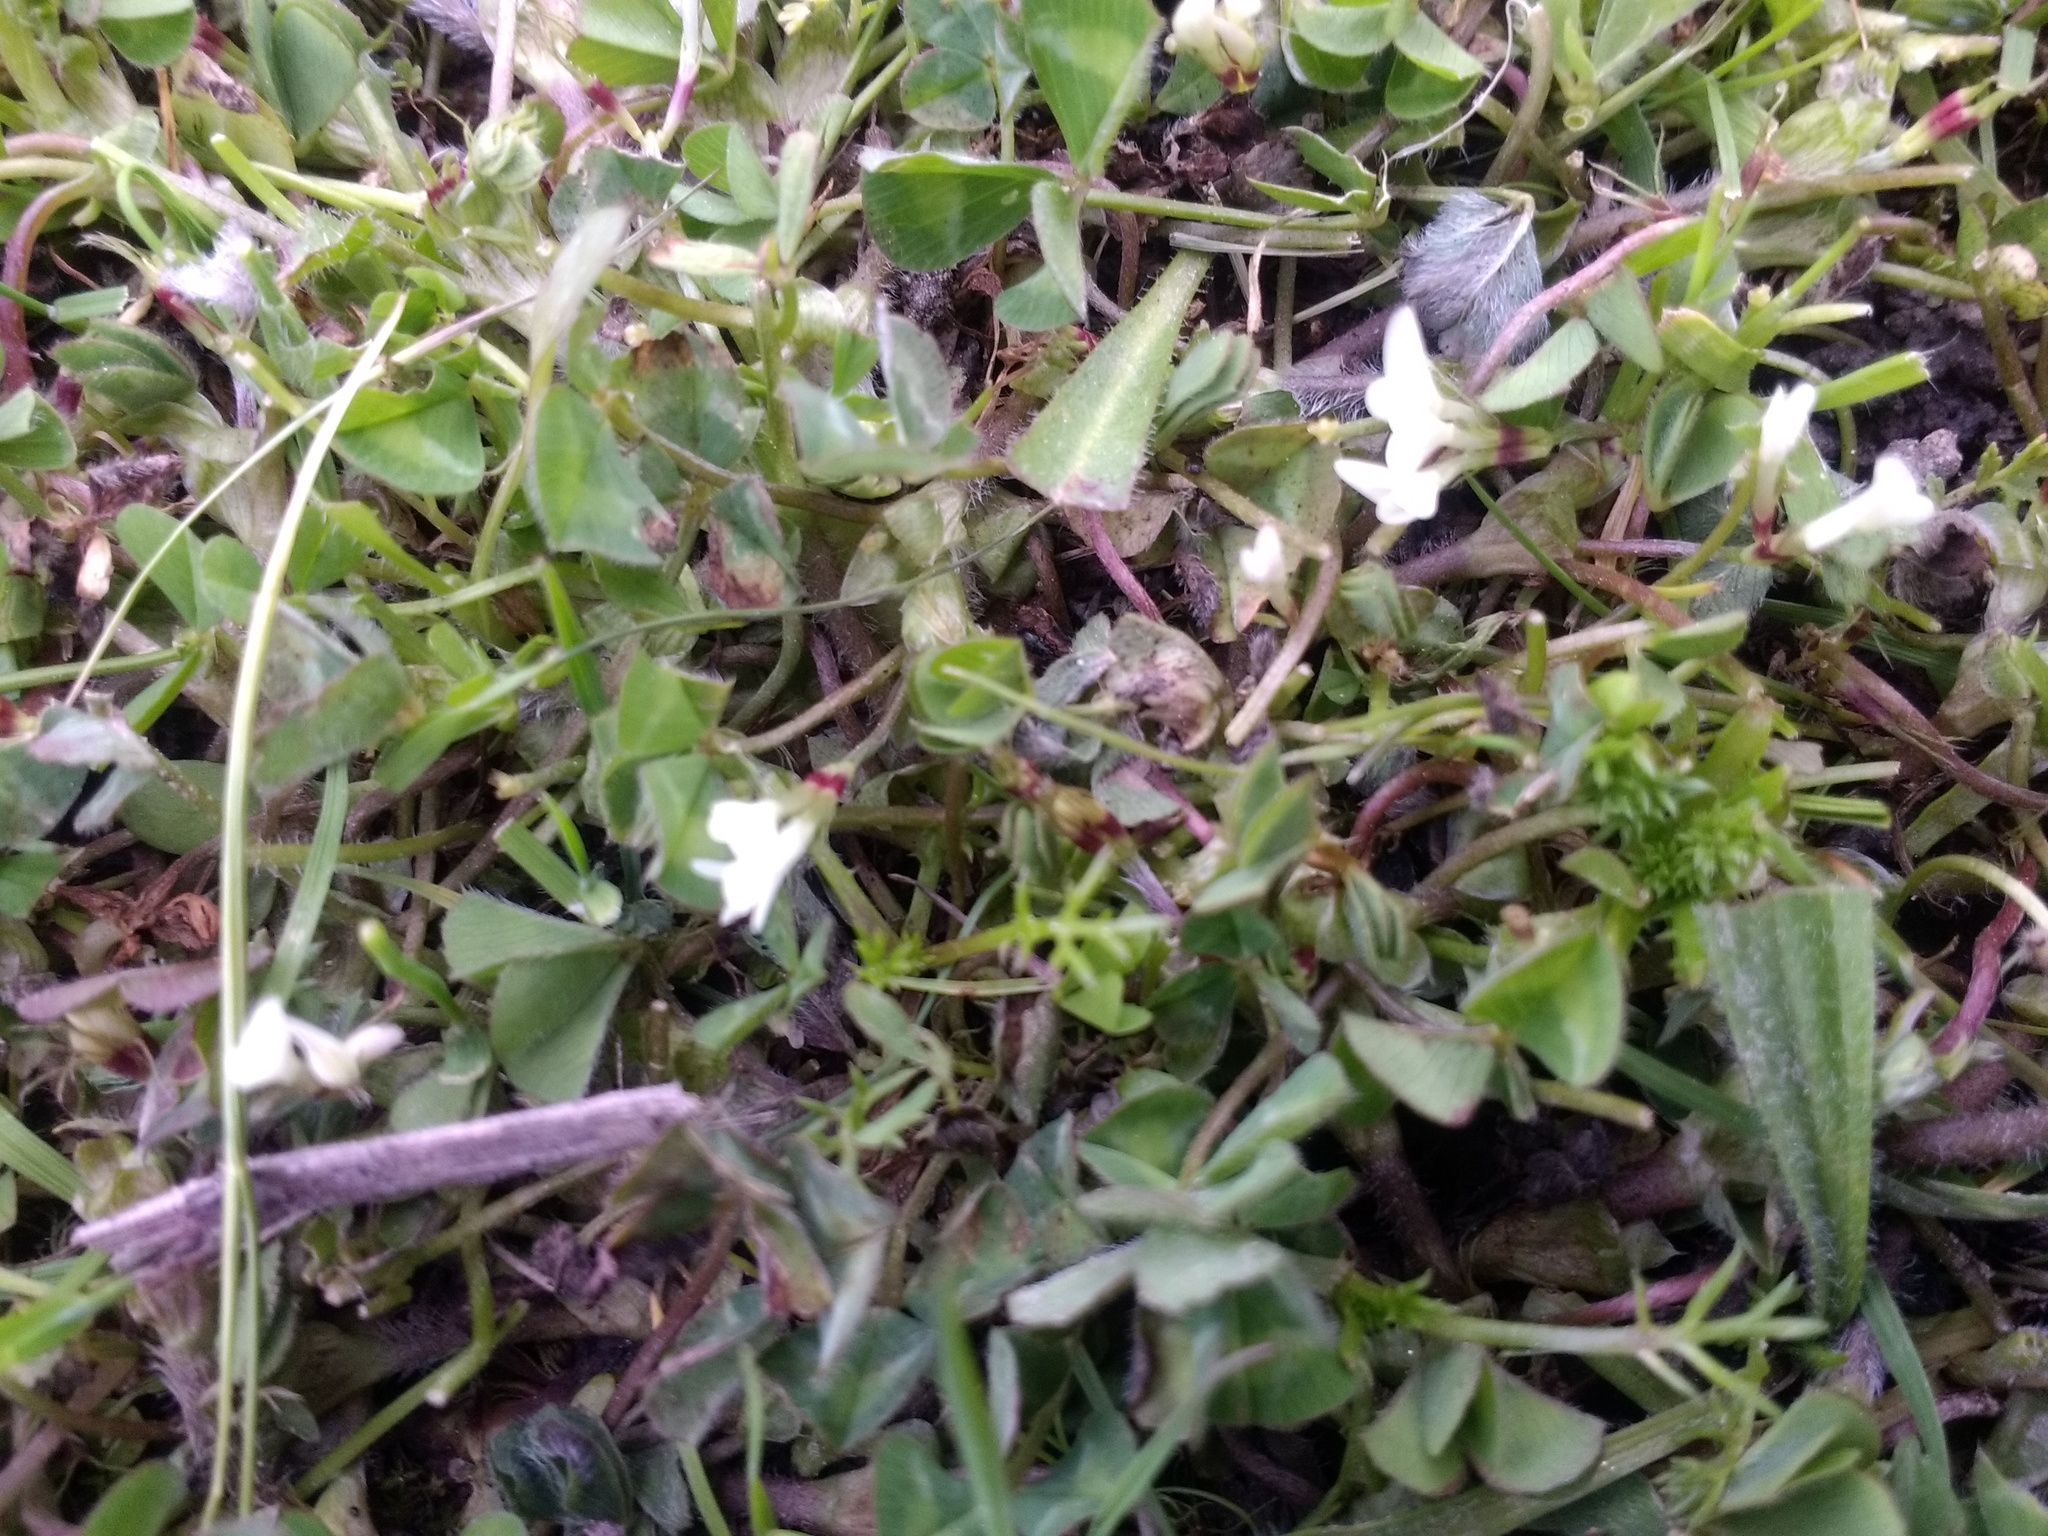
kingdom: Plantae
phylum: Tracheophyta
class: Magnoliopsida
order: Fabales
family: Fabaceae
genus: Trifolium
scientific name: Trifolium subterraneum
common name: Subterranean clover
